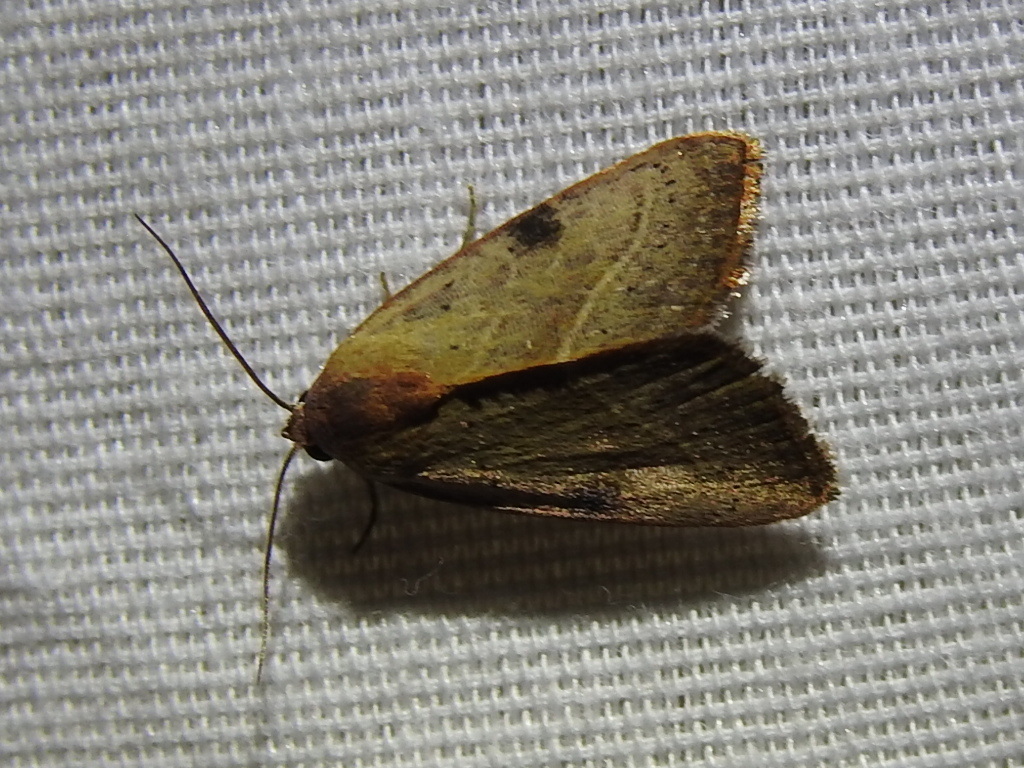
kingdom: Animalia
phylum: Arthropoda
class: Insecta
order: Lepidoptera
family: Noctuidae
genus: Galgula
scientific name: Galgula partita
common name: Wedgeling
